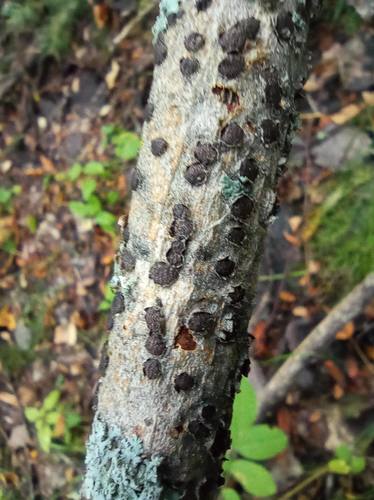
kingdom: Fungi
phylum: Ascomycota
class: Sordariomycetes
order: Xylariales
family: Diatrypaceae
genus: Diatrype
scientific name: Diatrype bullata
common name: Willow barkspot
